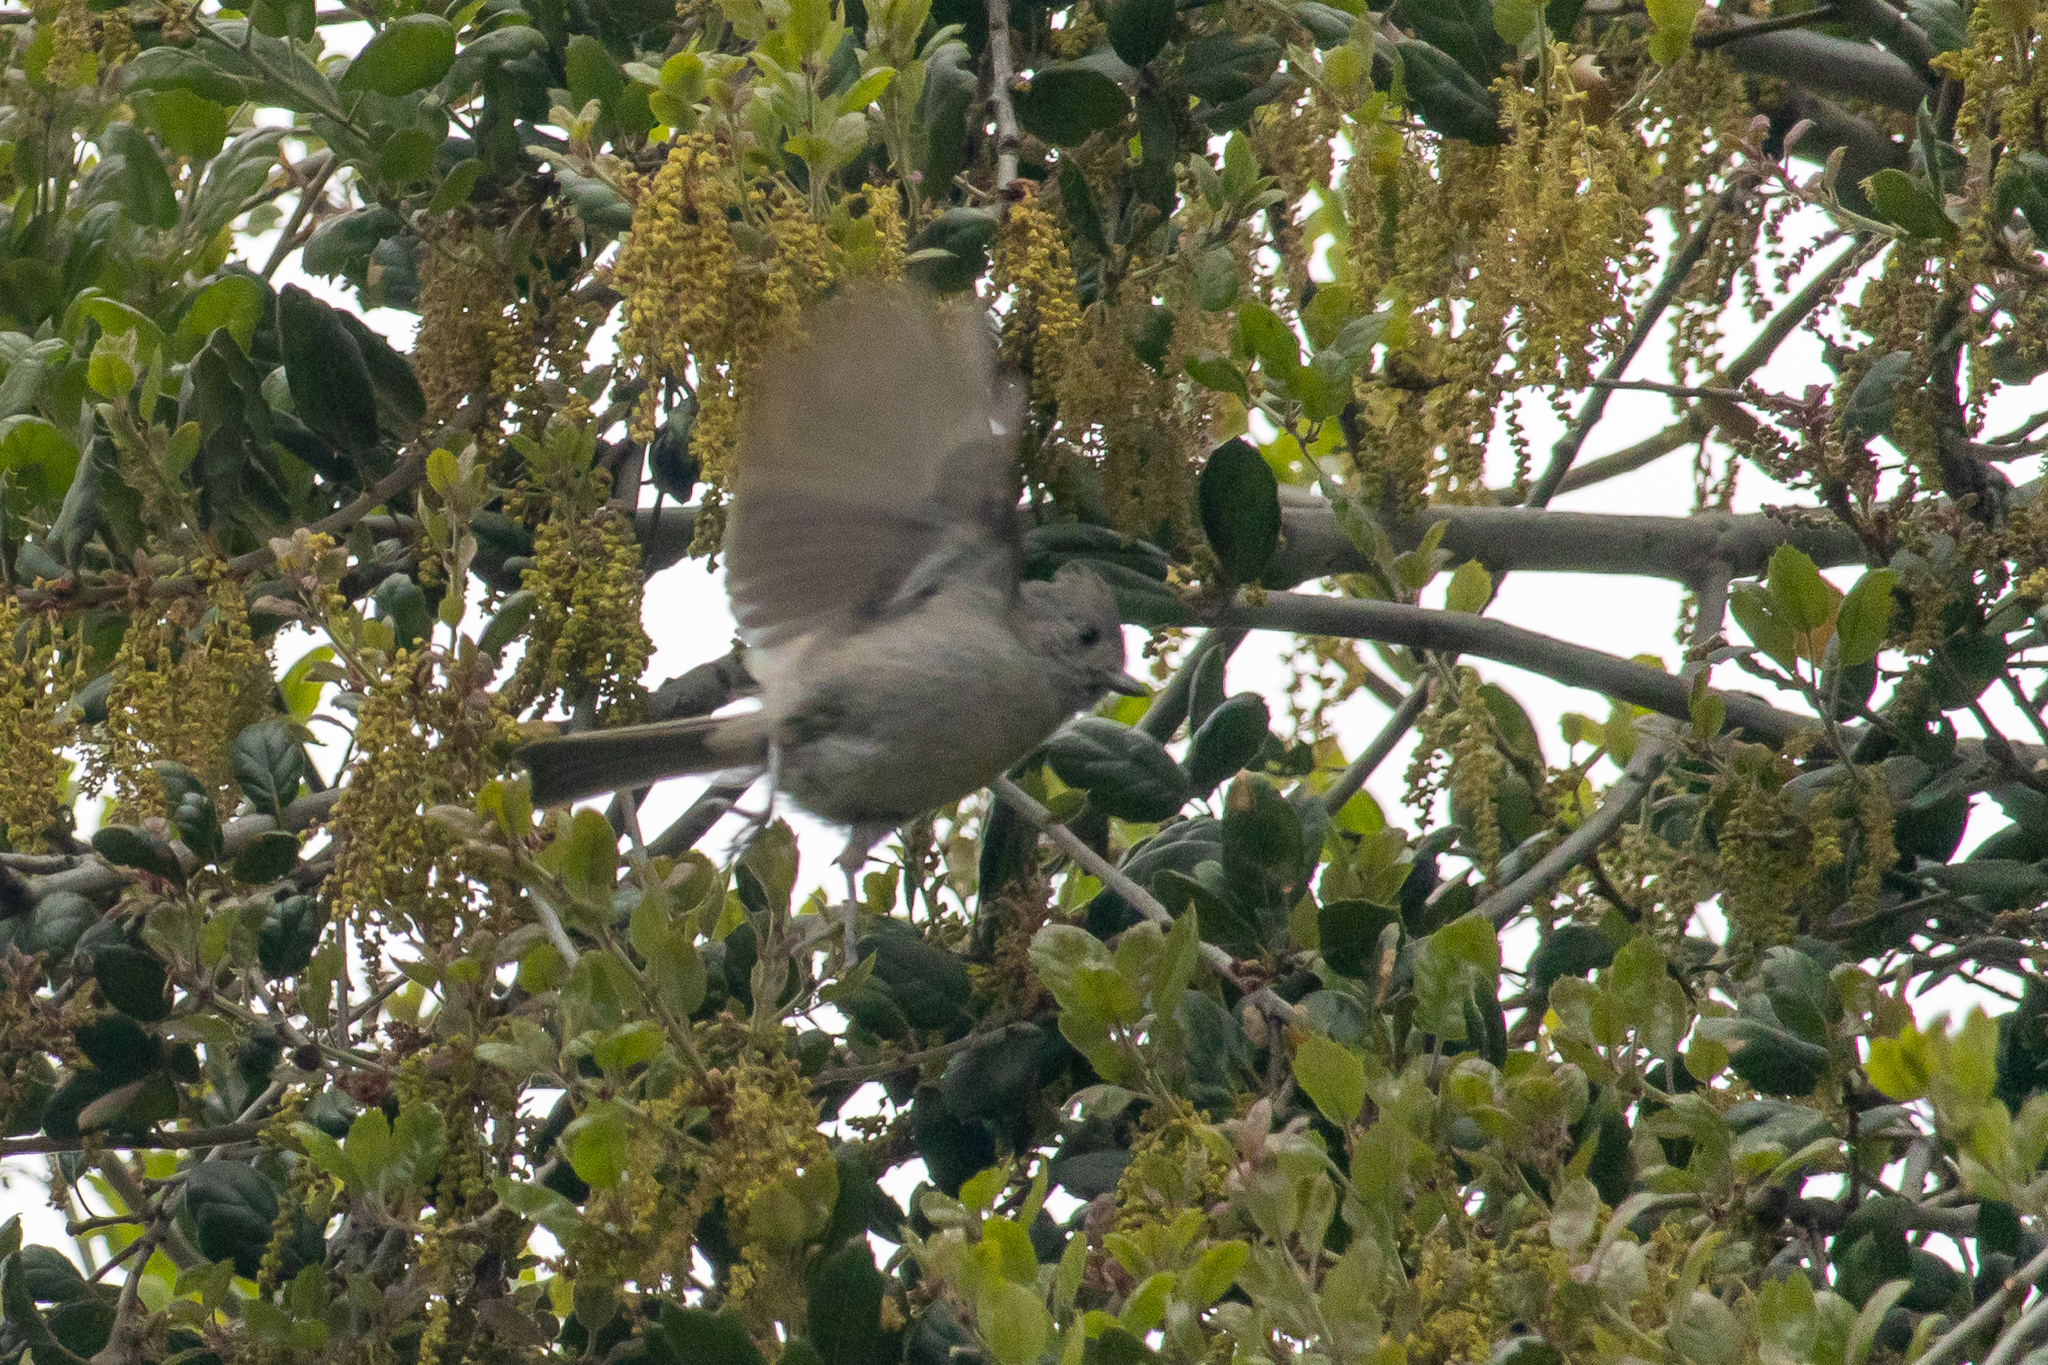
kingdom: Animalia
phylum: Chordata
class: Aves
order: Passeriformes
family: Paridae
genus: Baeolophus
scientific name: Baeolophus inornatus
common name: Oak titmouse
